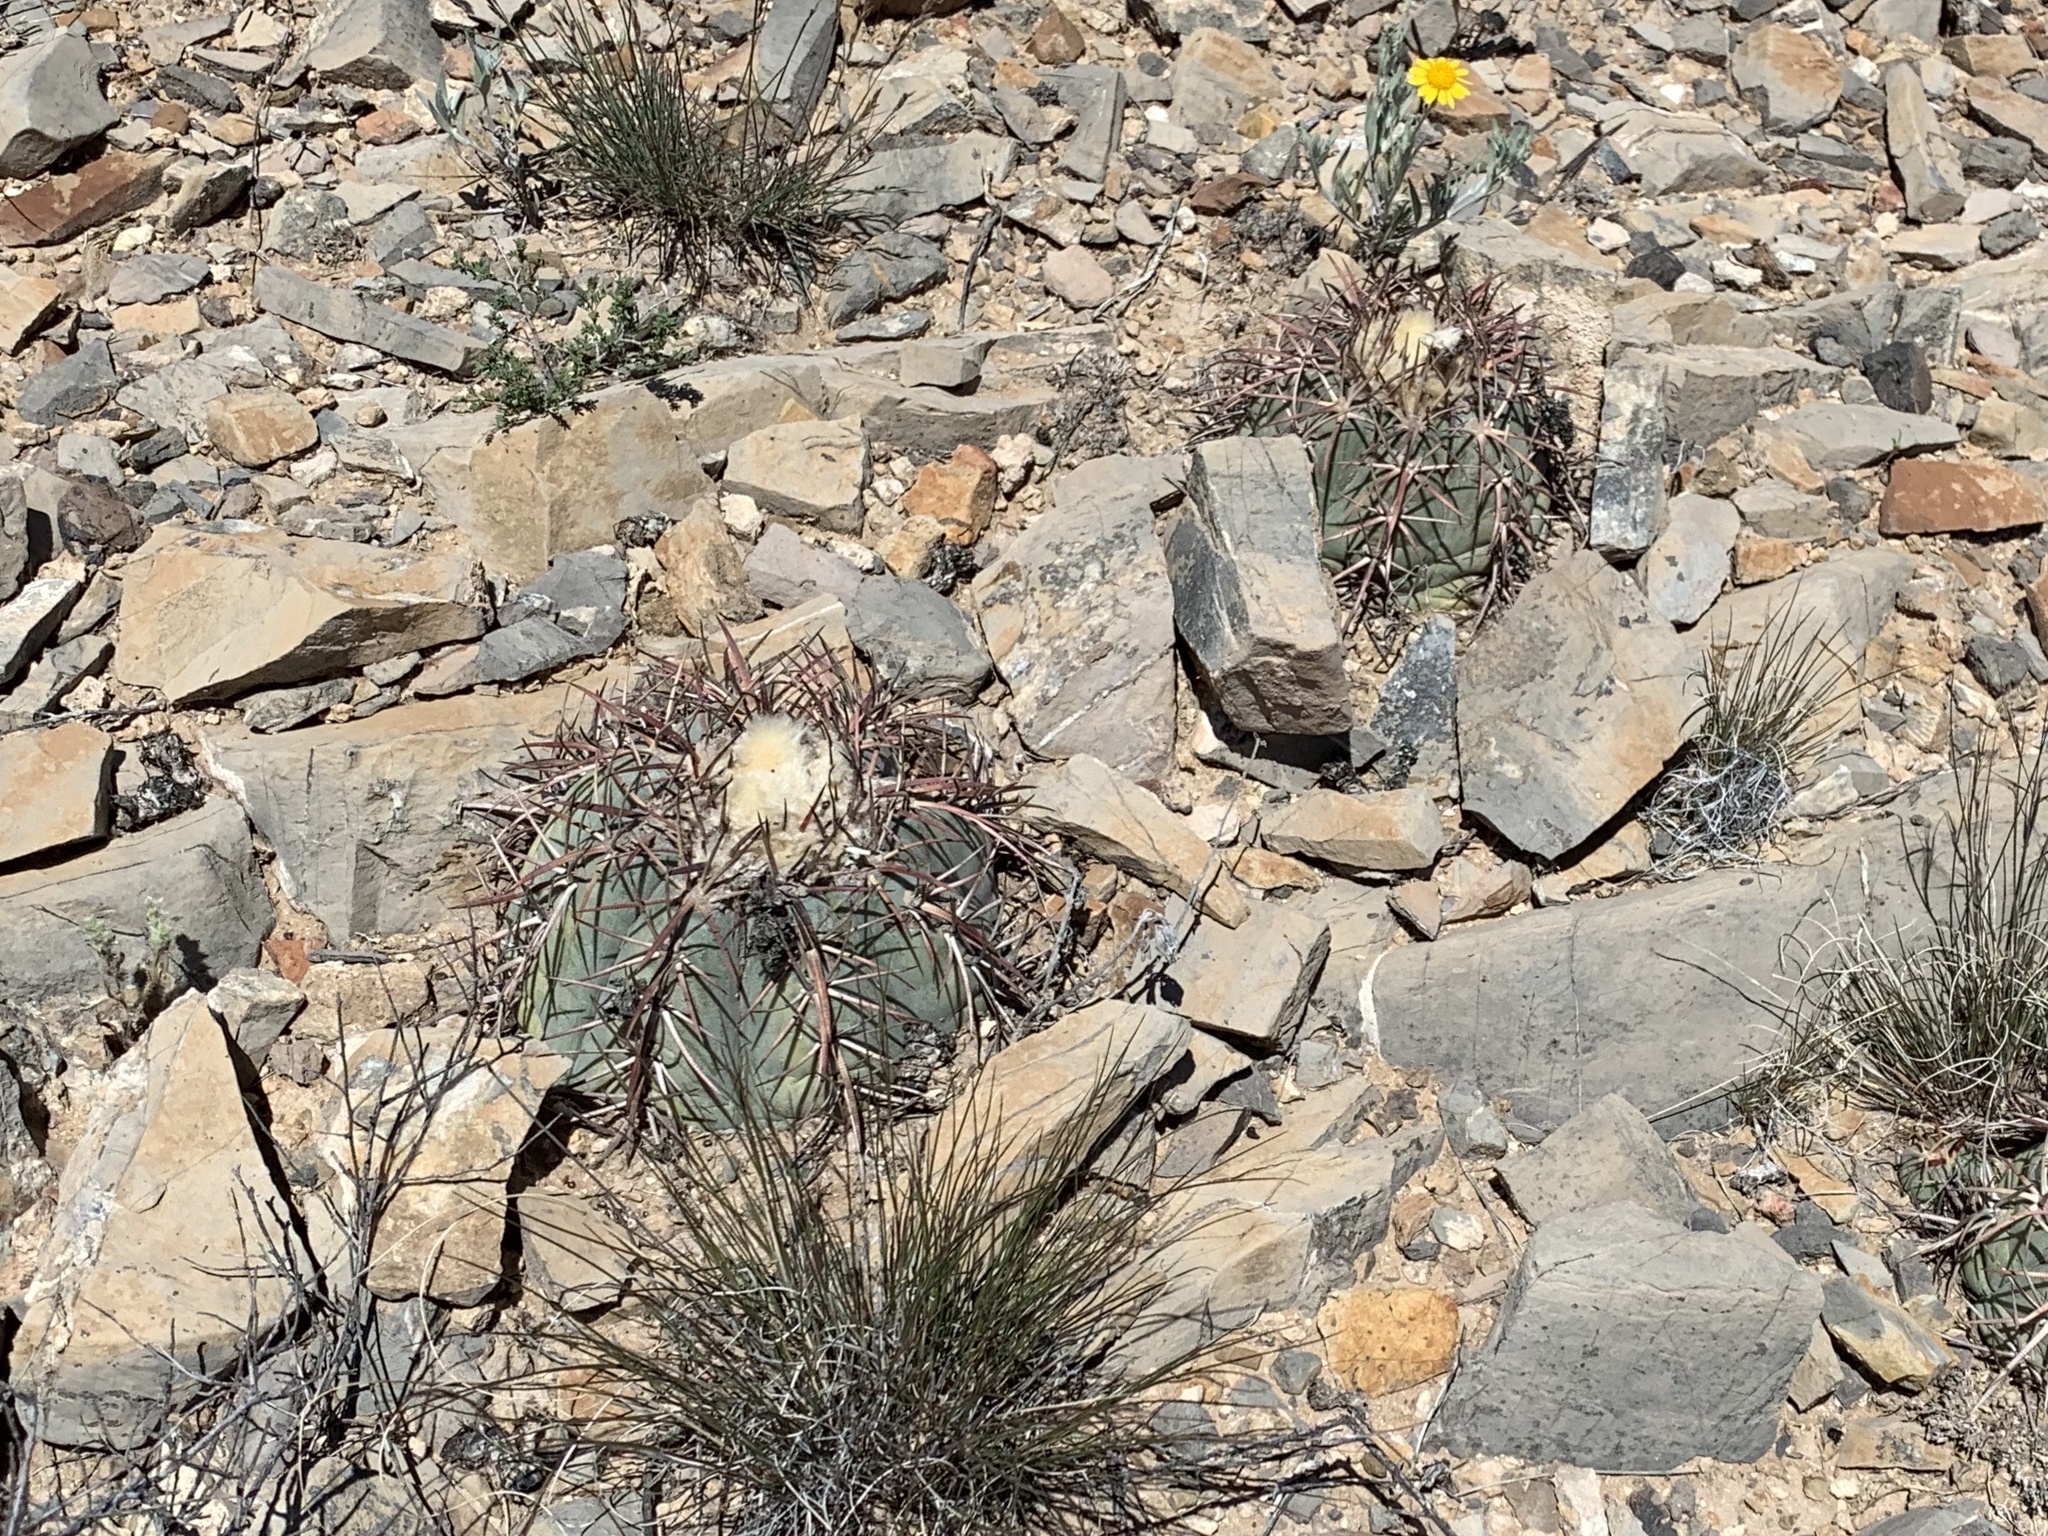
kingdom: Plantae
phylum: Tracheophyta
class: Magnoliopsida
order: Caryophyllales
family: Cactaceae
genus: Echinocactus
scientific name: Echinocactus horizonthalonius
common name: Devilshead
